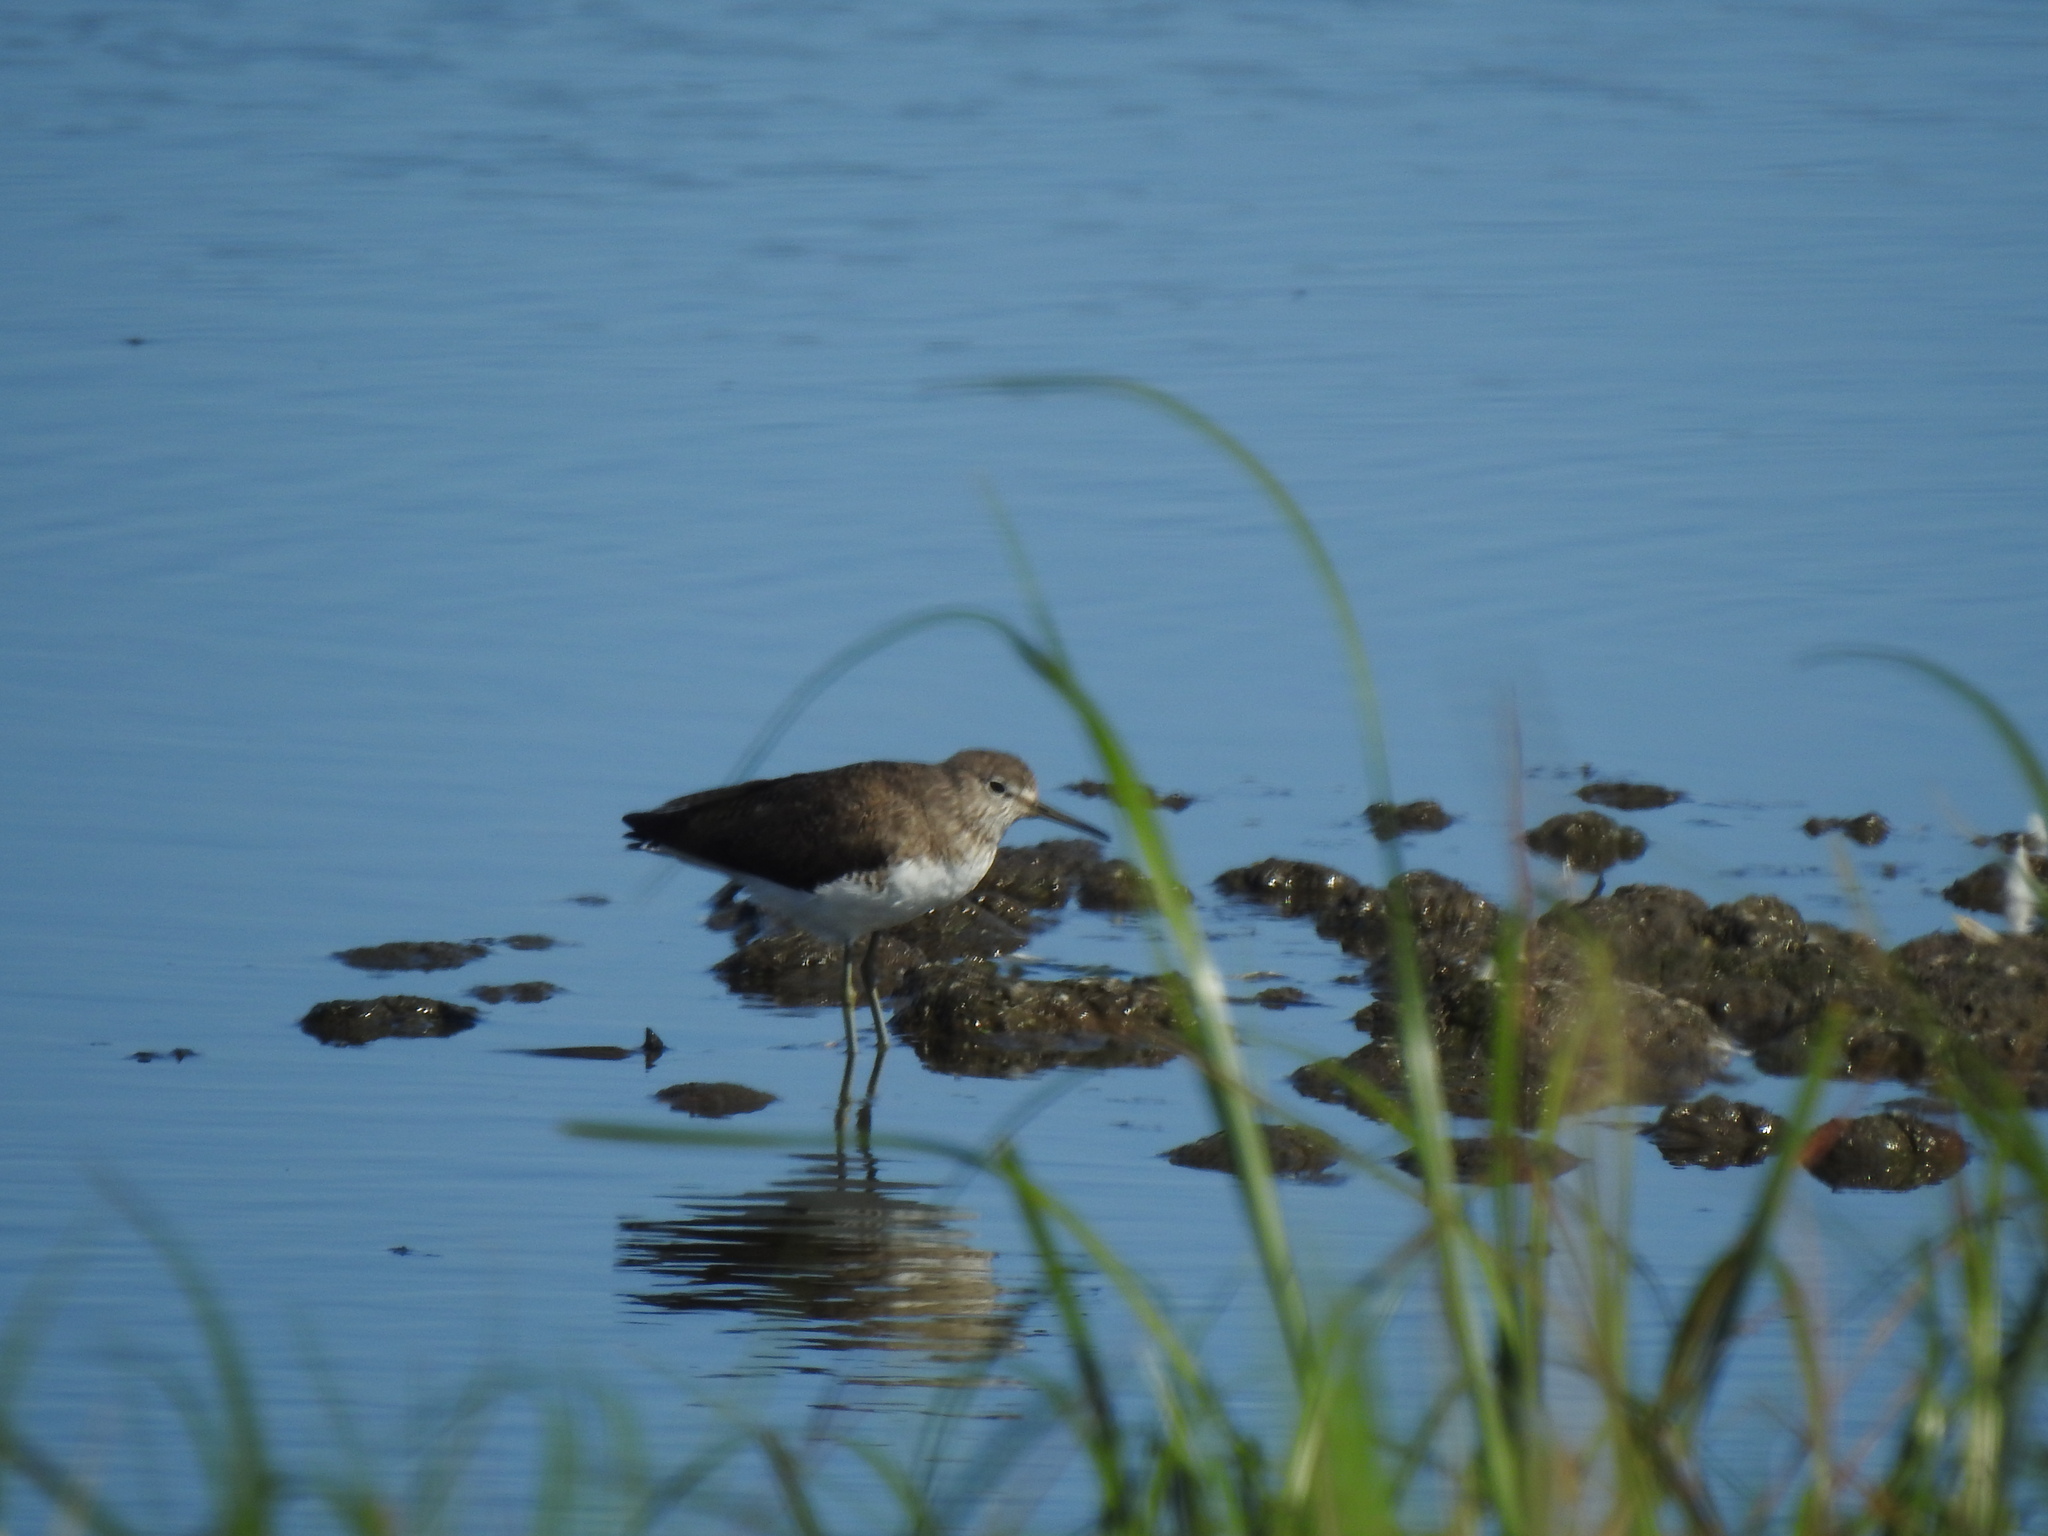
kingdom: Animalia
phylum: Chordata
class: Aves
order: Charadriiformes
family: Scolopacidae
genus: Tringa
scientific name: Tringa ochropus
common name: Green sandpiper
